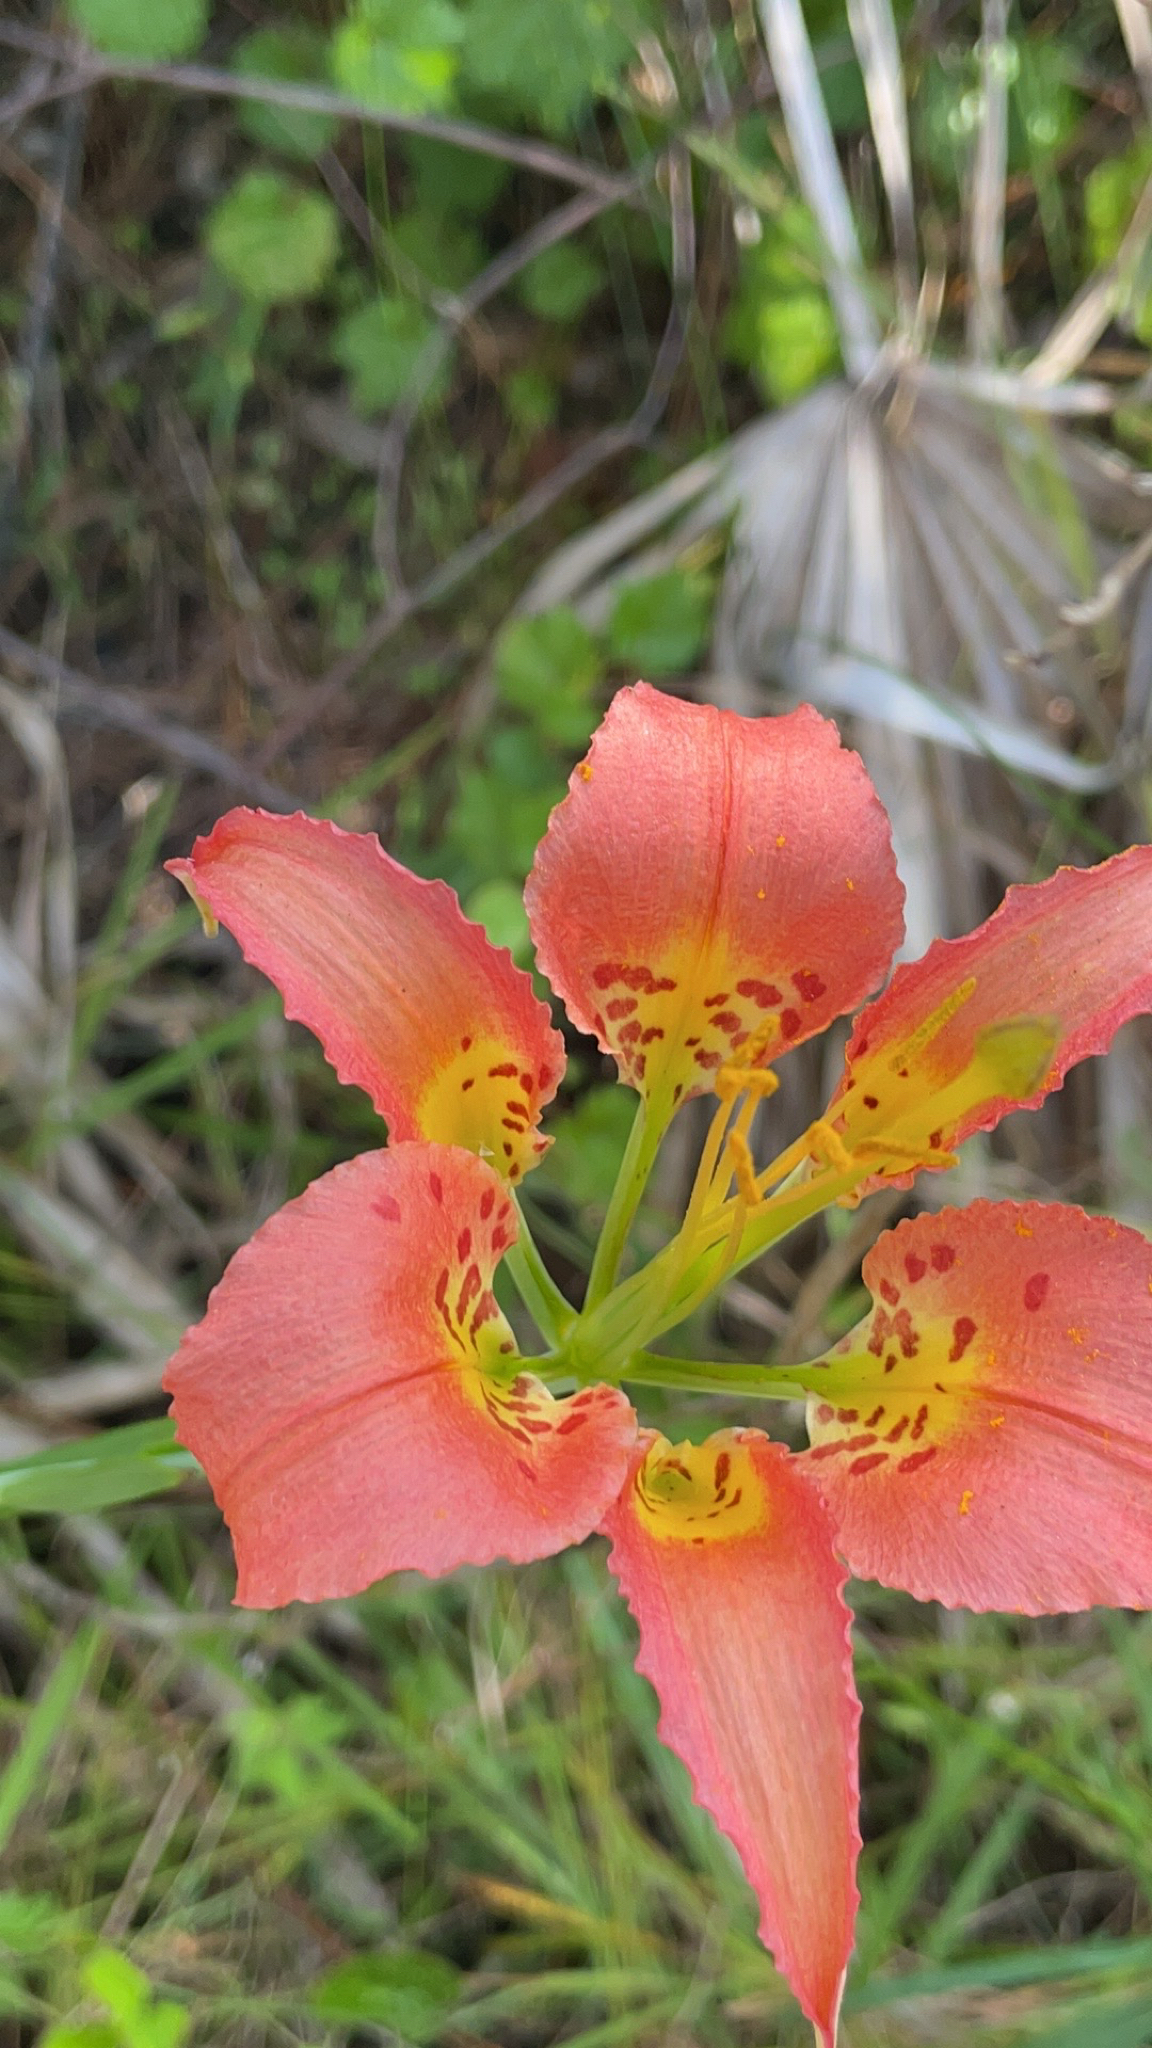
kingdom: Plantae
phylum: Tracheophyta
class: Liliopsida
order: Liliales
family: Liliaceae
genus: Lilium
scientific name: Lilium catesbaei
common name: Catesby's lily
